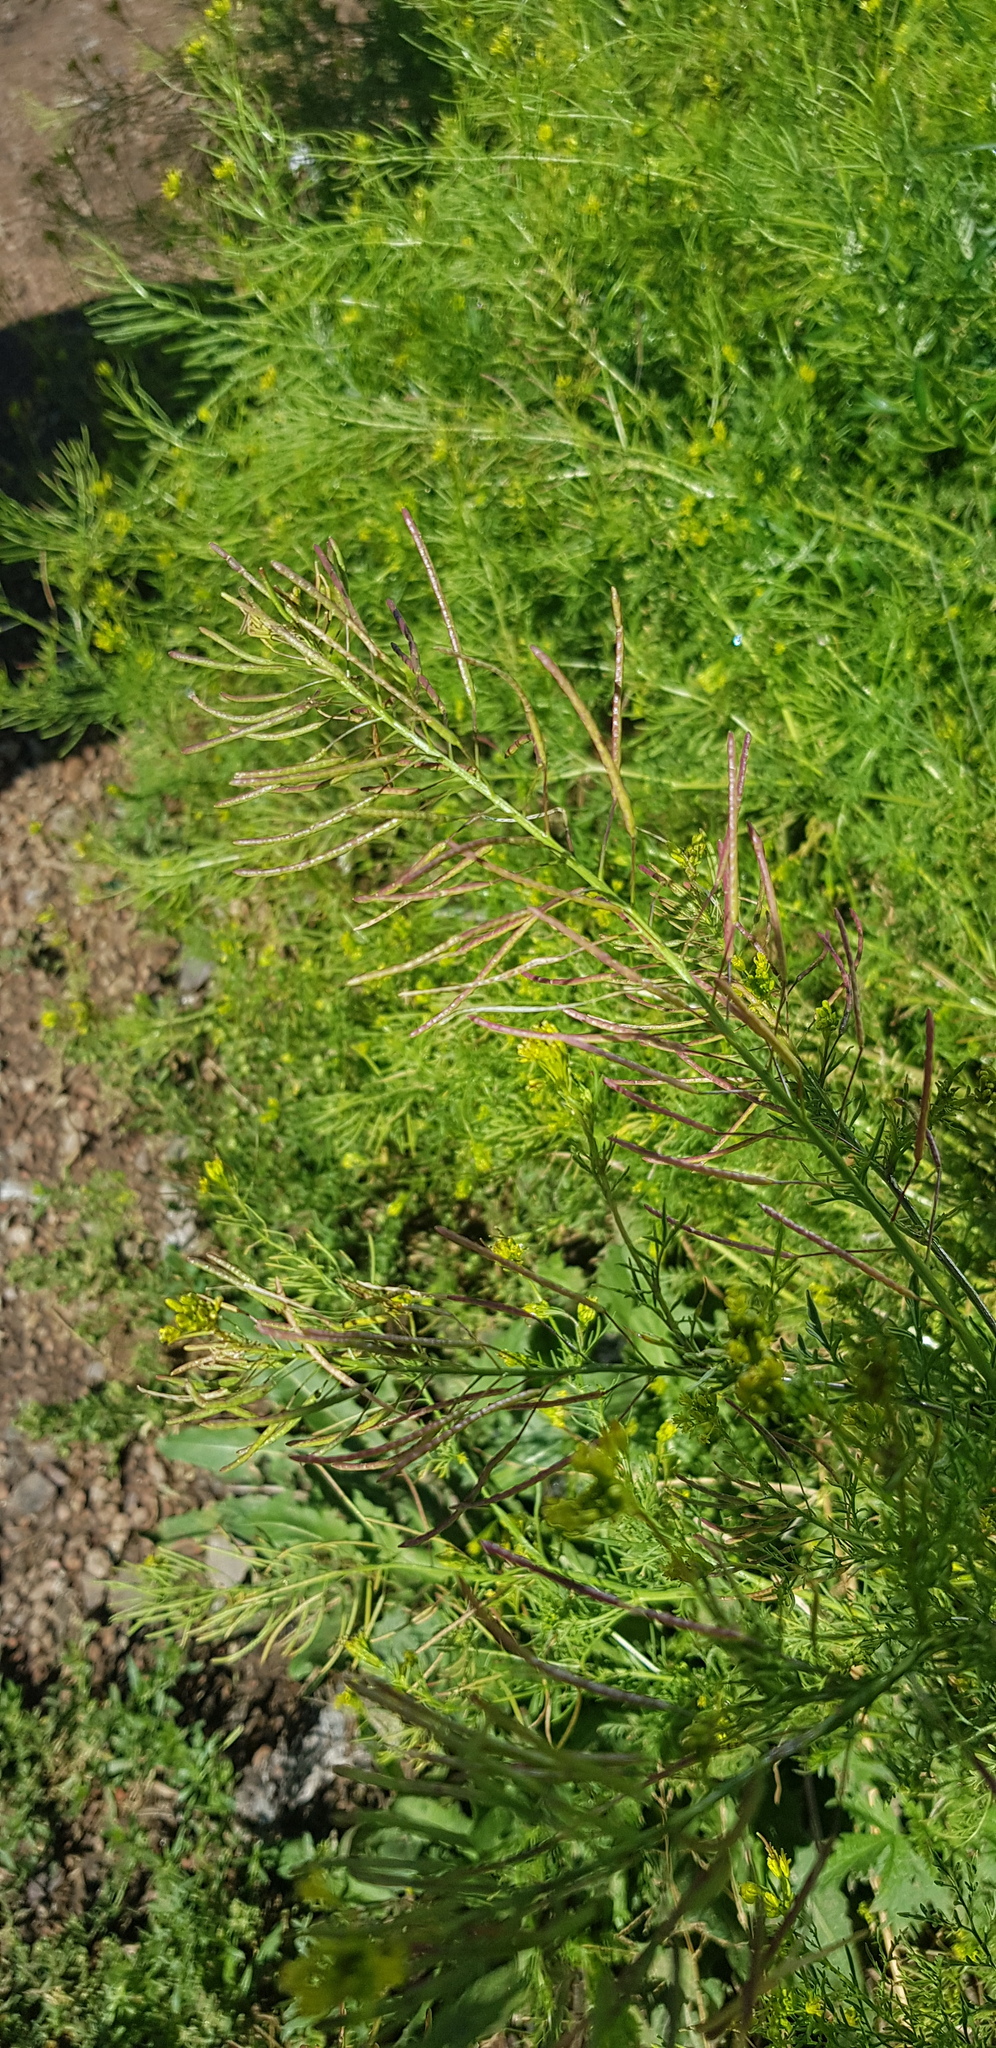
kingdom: Plantae
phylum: Tracheophyta
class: Magnoliopsida
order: Brassicales
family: Brassicaceae
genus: Descurainia
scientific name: Descurainia sophia
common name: Flixweed
